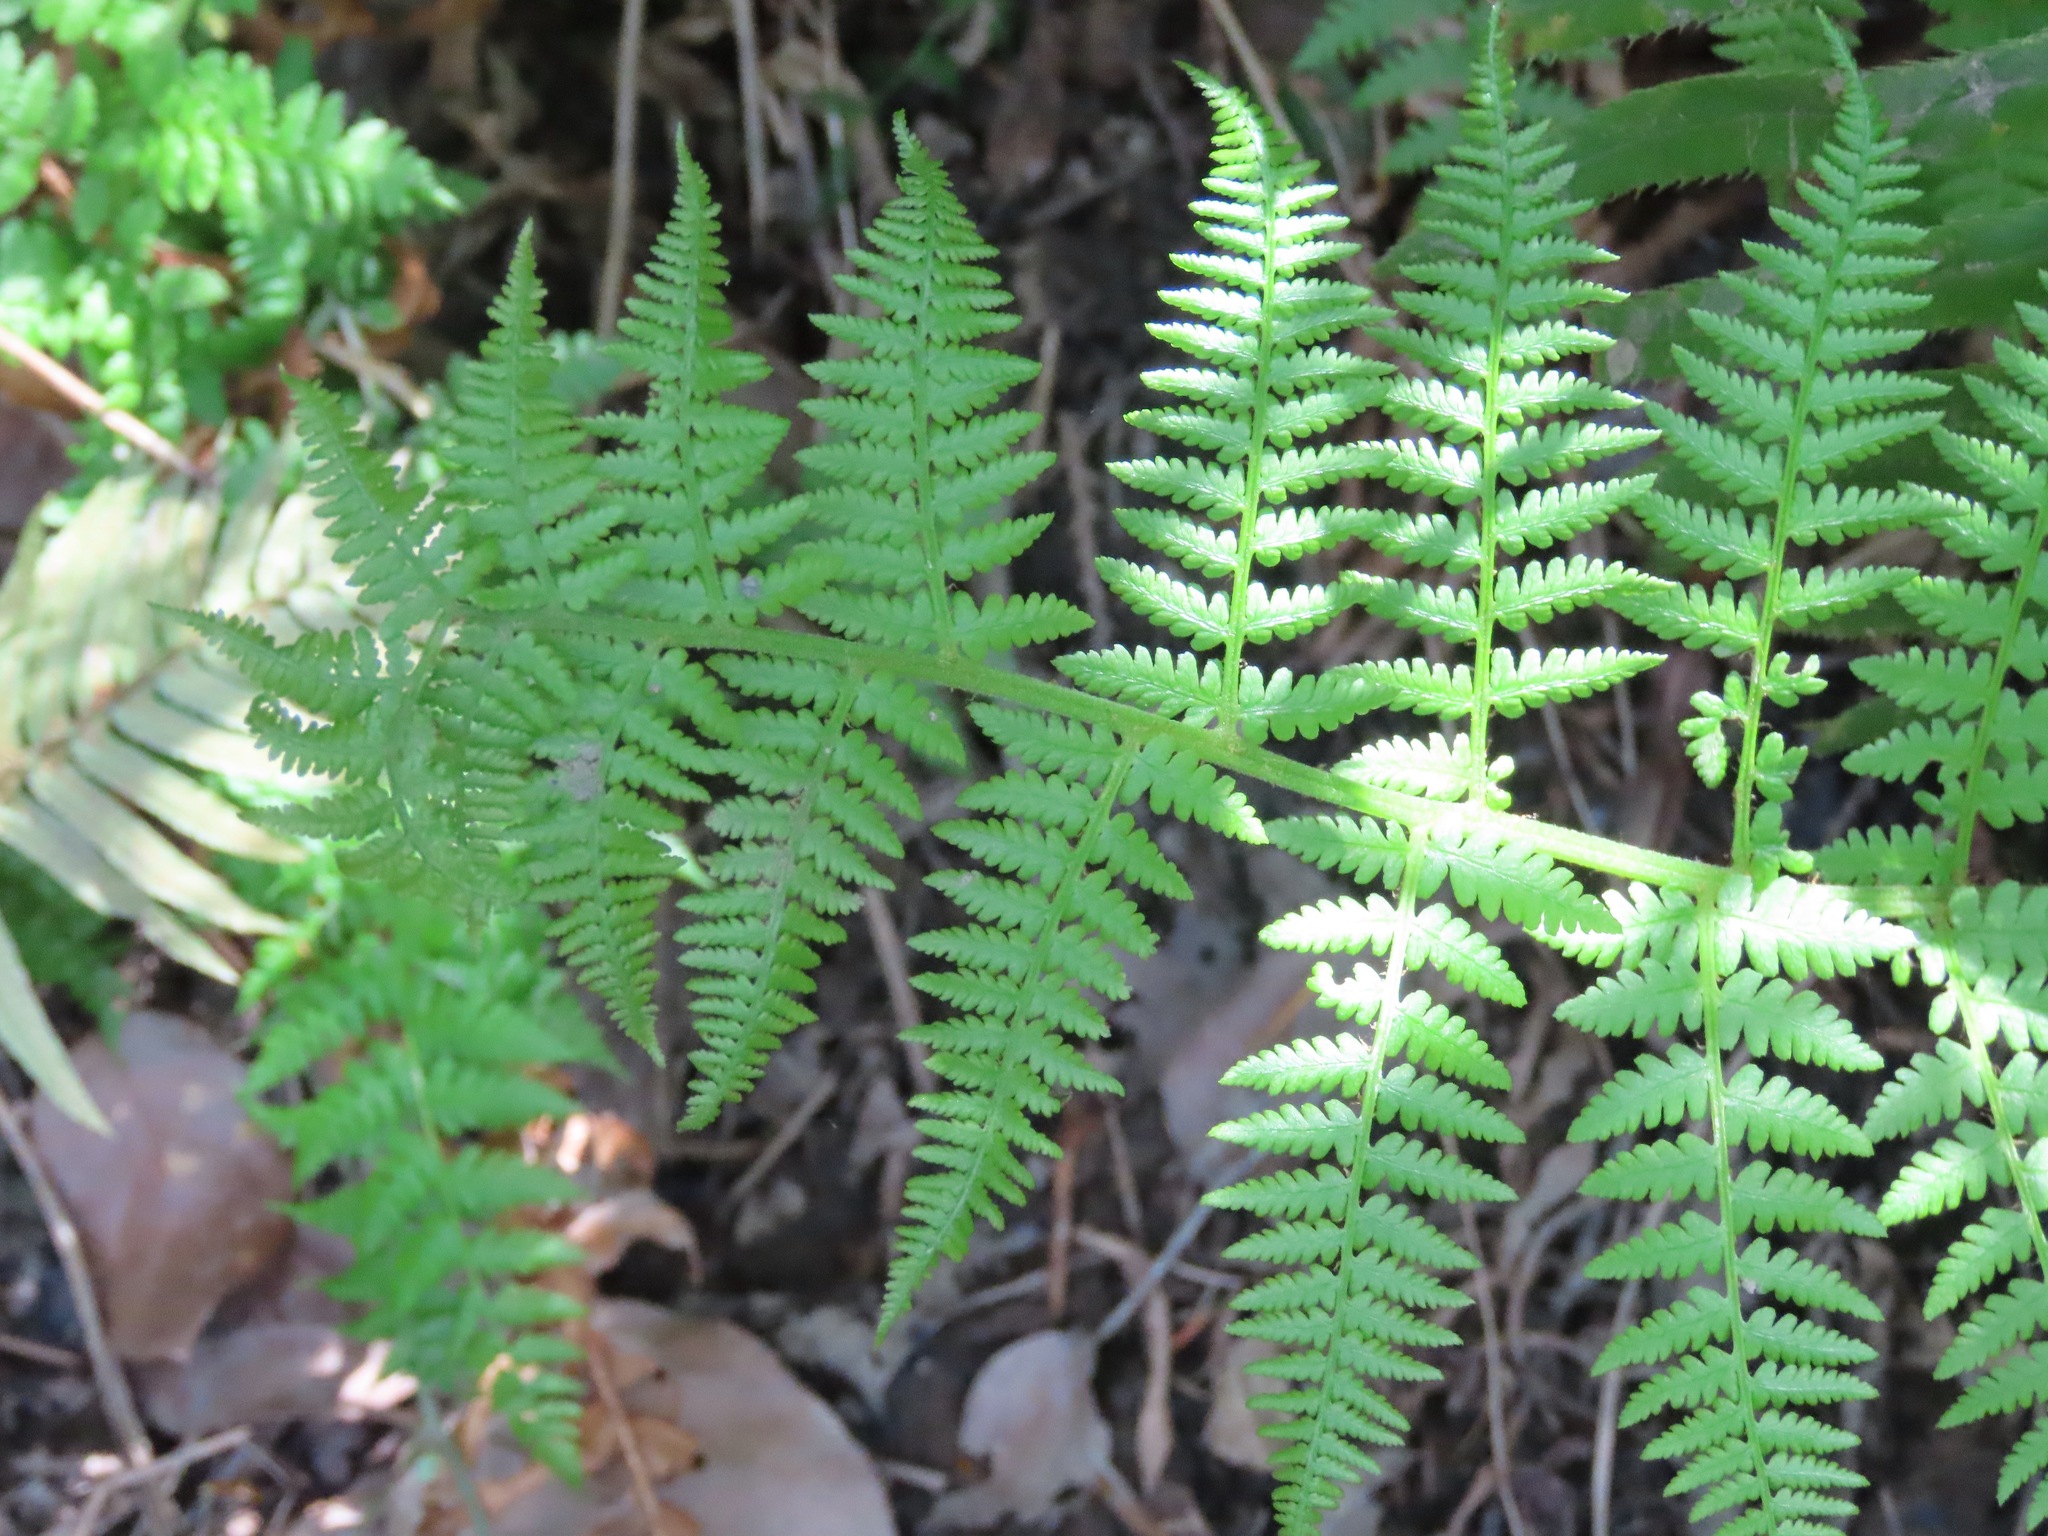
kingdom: Plantae
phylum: Tracheophyta
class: Polypodiopsida
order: Polypodiales
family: Athyriaceae
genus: Athyrium
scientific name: Athyrium filix-femina
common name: Lady fern
